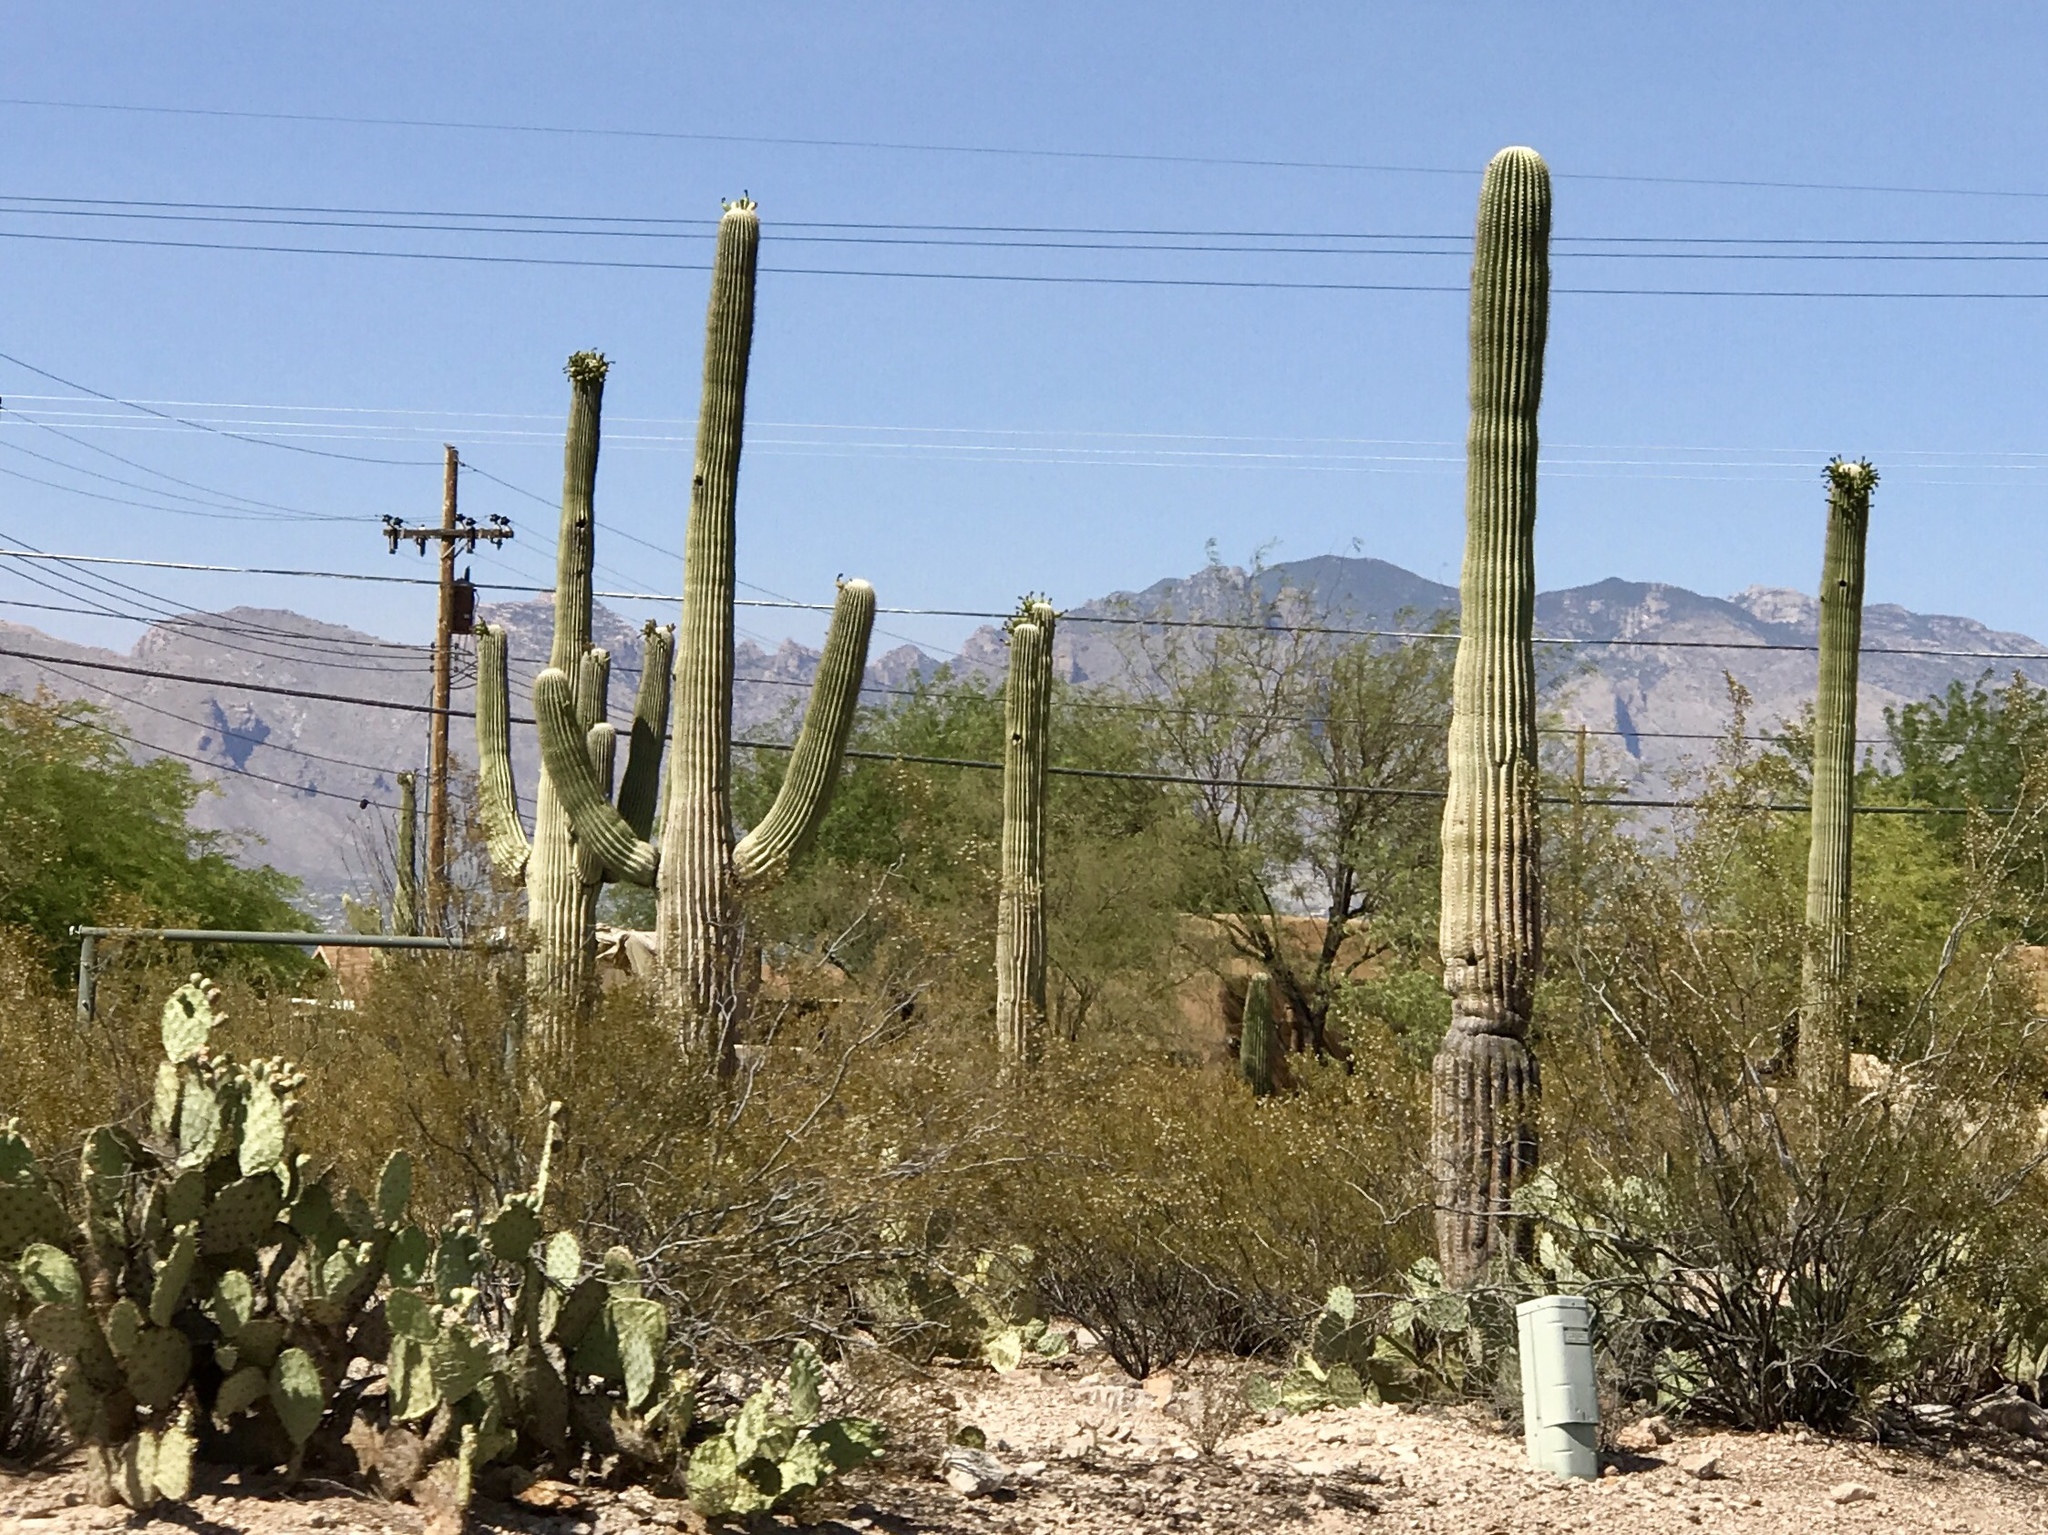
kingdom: Plantae
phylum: Tracheophyta
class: Magnoliopsida
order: Caryophyllales
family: Cactaceae
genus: Carnegiea
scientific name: Carnegiea gigantea
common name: Saguaro
